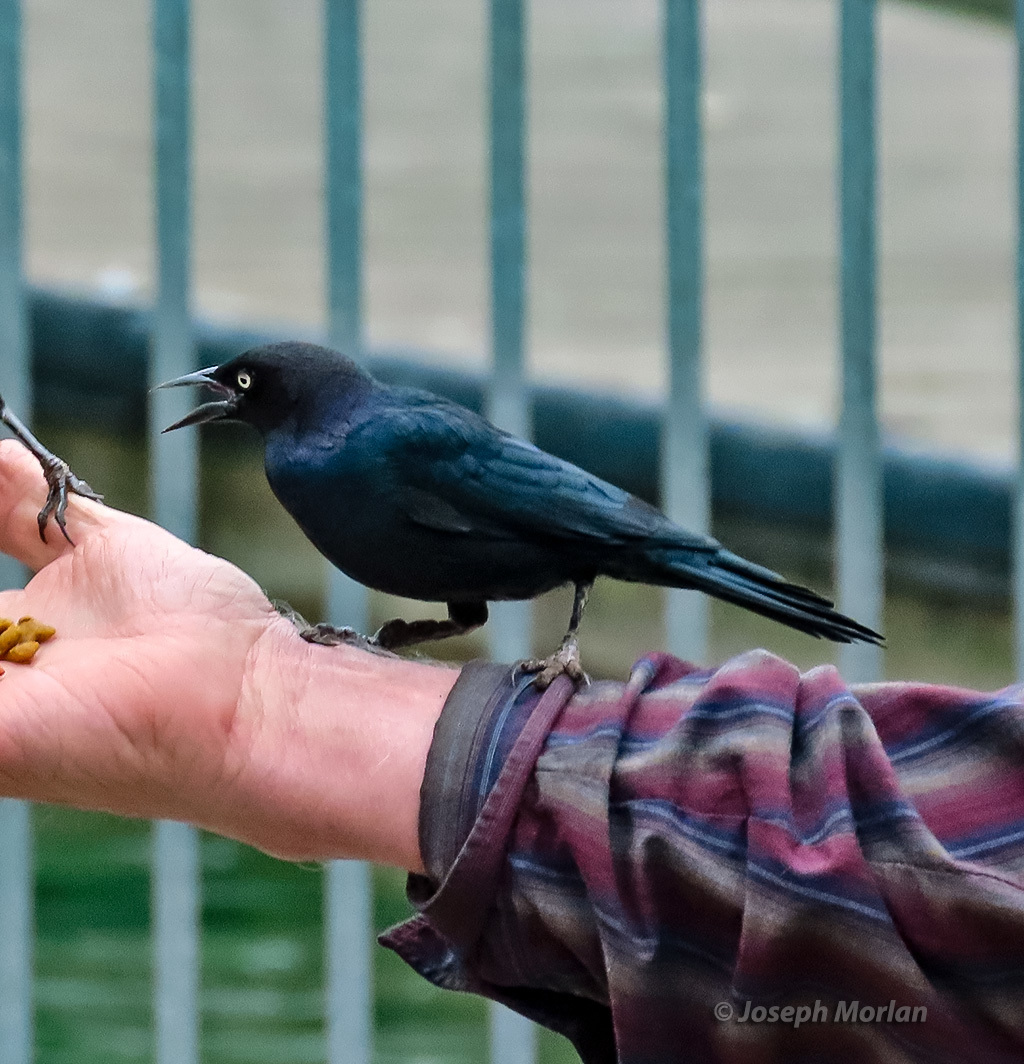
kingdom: Animalia
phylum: Chordata
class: Aves
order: Passeriformes
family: Icteridae
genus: Euphagus
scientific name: Euphagus cyanocephalus
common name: Brewer's blackbird
